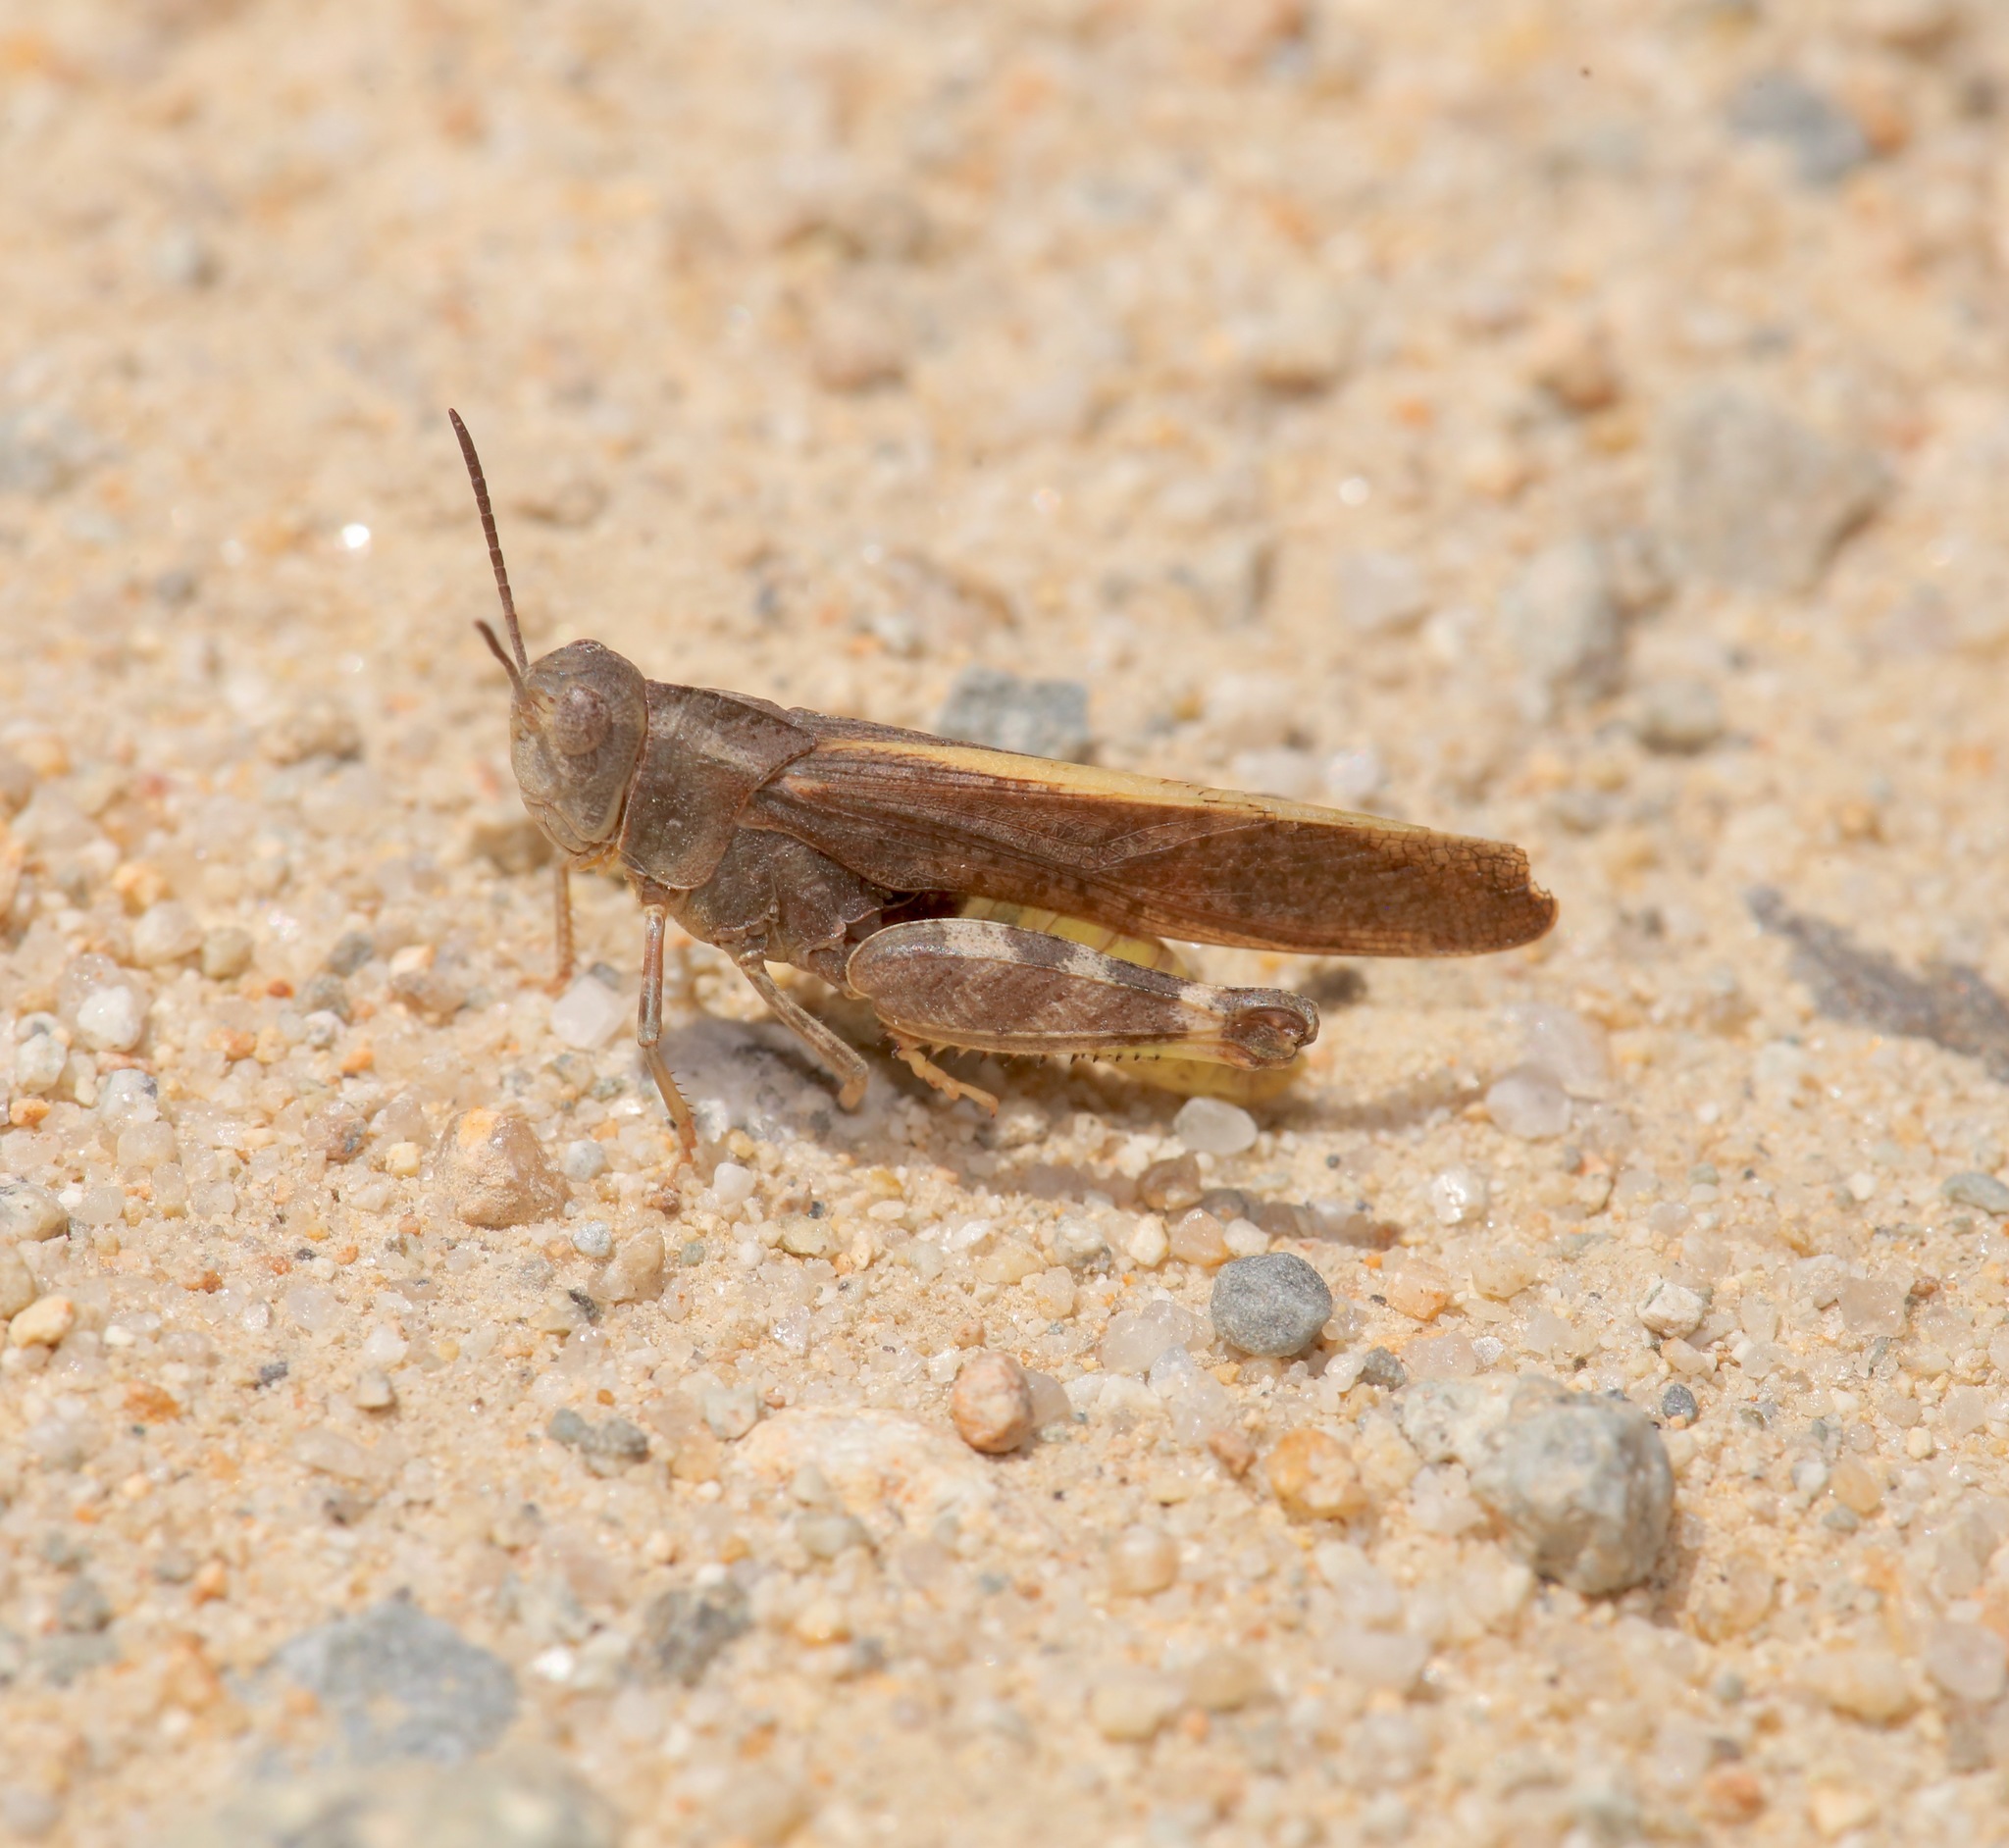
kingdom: Animalia
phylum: Arthropoda
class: Insecta
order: Orthoptera
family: Acrididae
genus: Arphia
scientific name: Arphia conspersa
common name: Speckle-winged rangeland grasshopper
